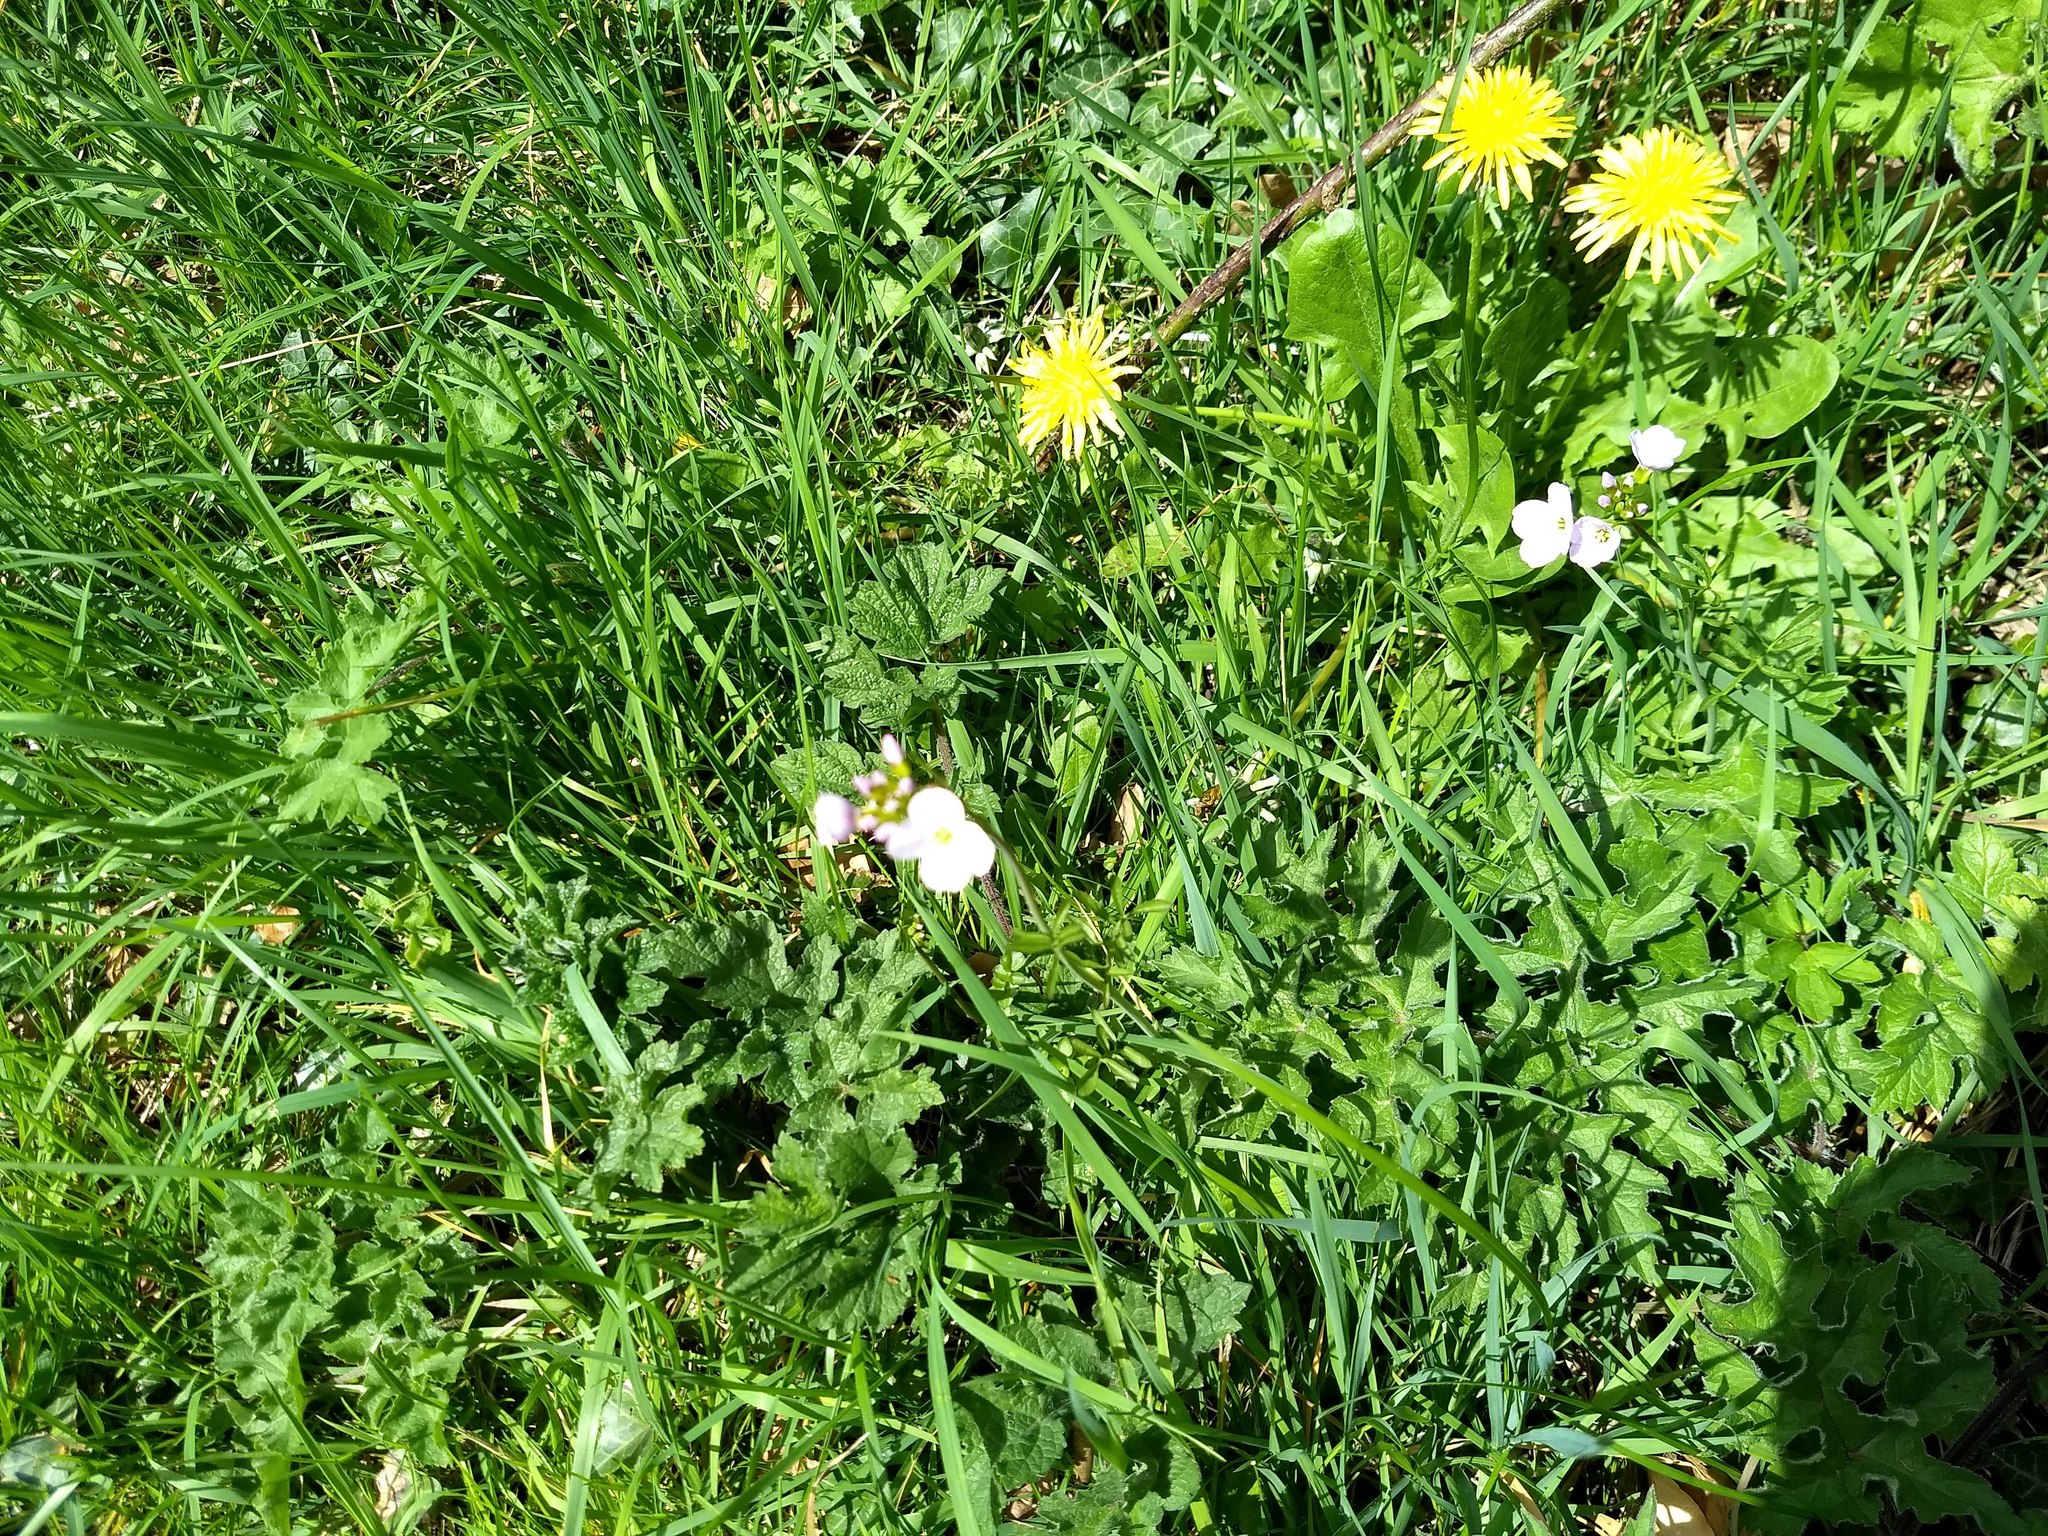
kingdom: Plantae
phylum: Tracheophyta
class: Magnoliopsida
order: Brassicales
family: Brassicaceae
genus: Cardamine
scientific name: Cardamine pratensis
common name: Cuckoo flower
